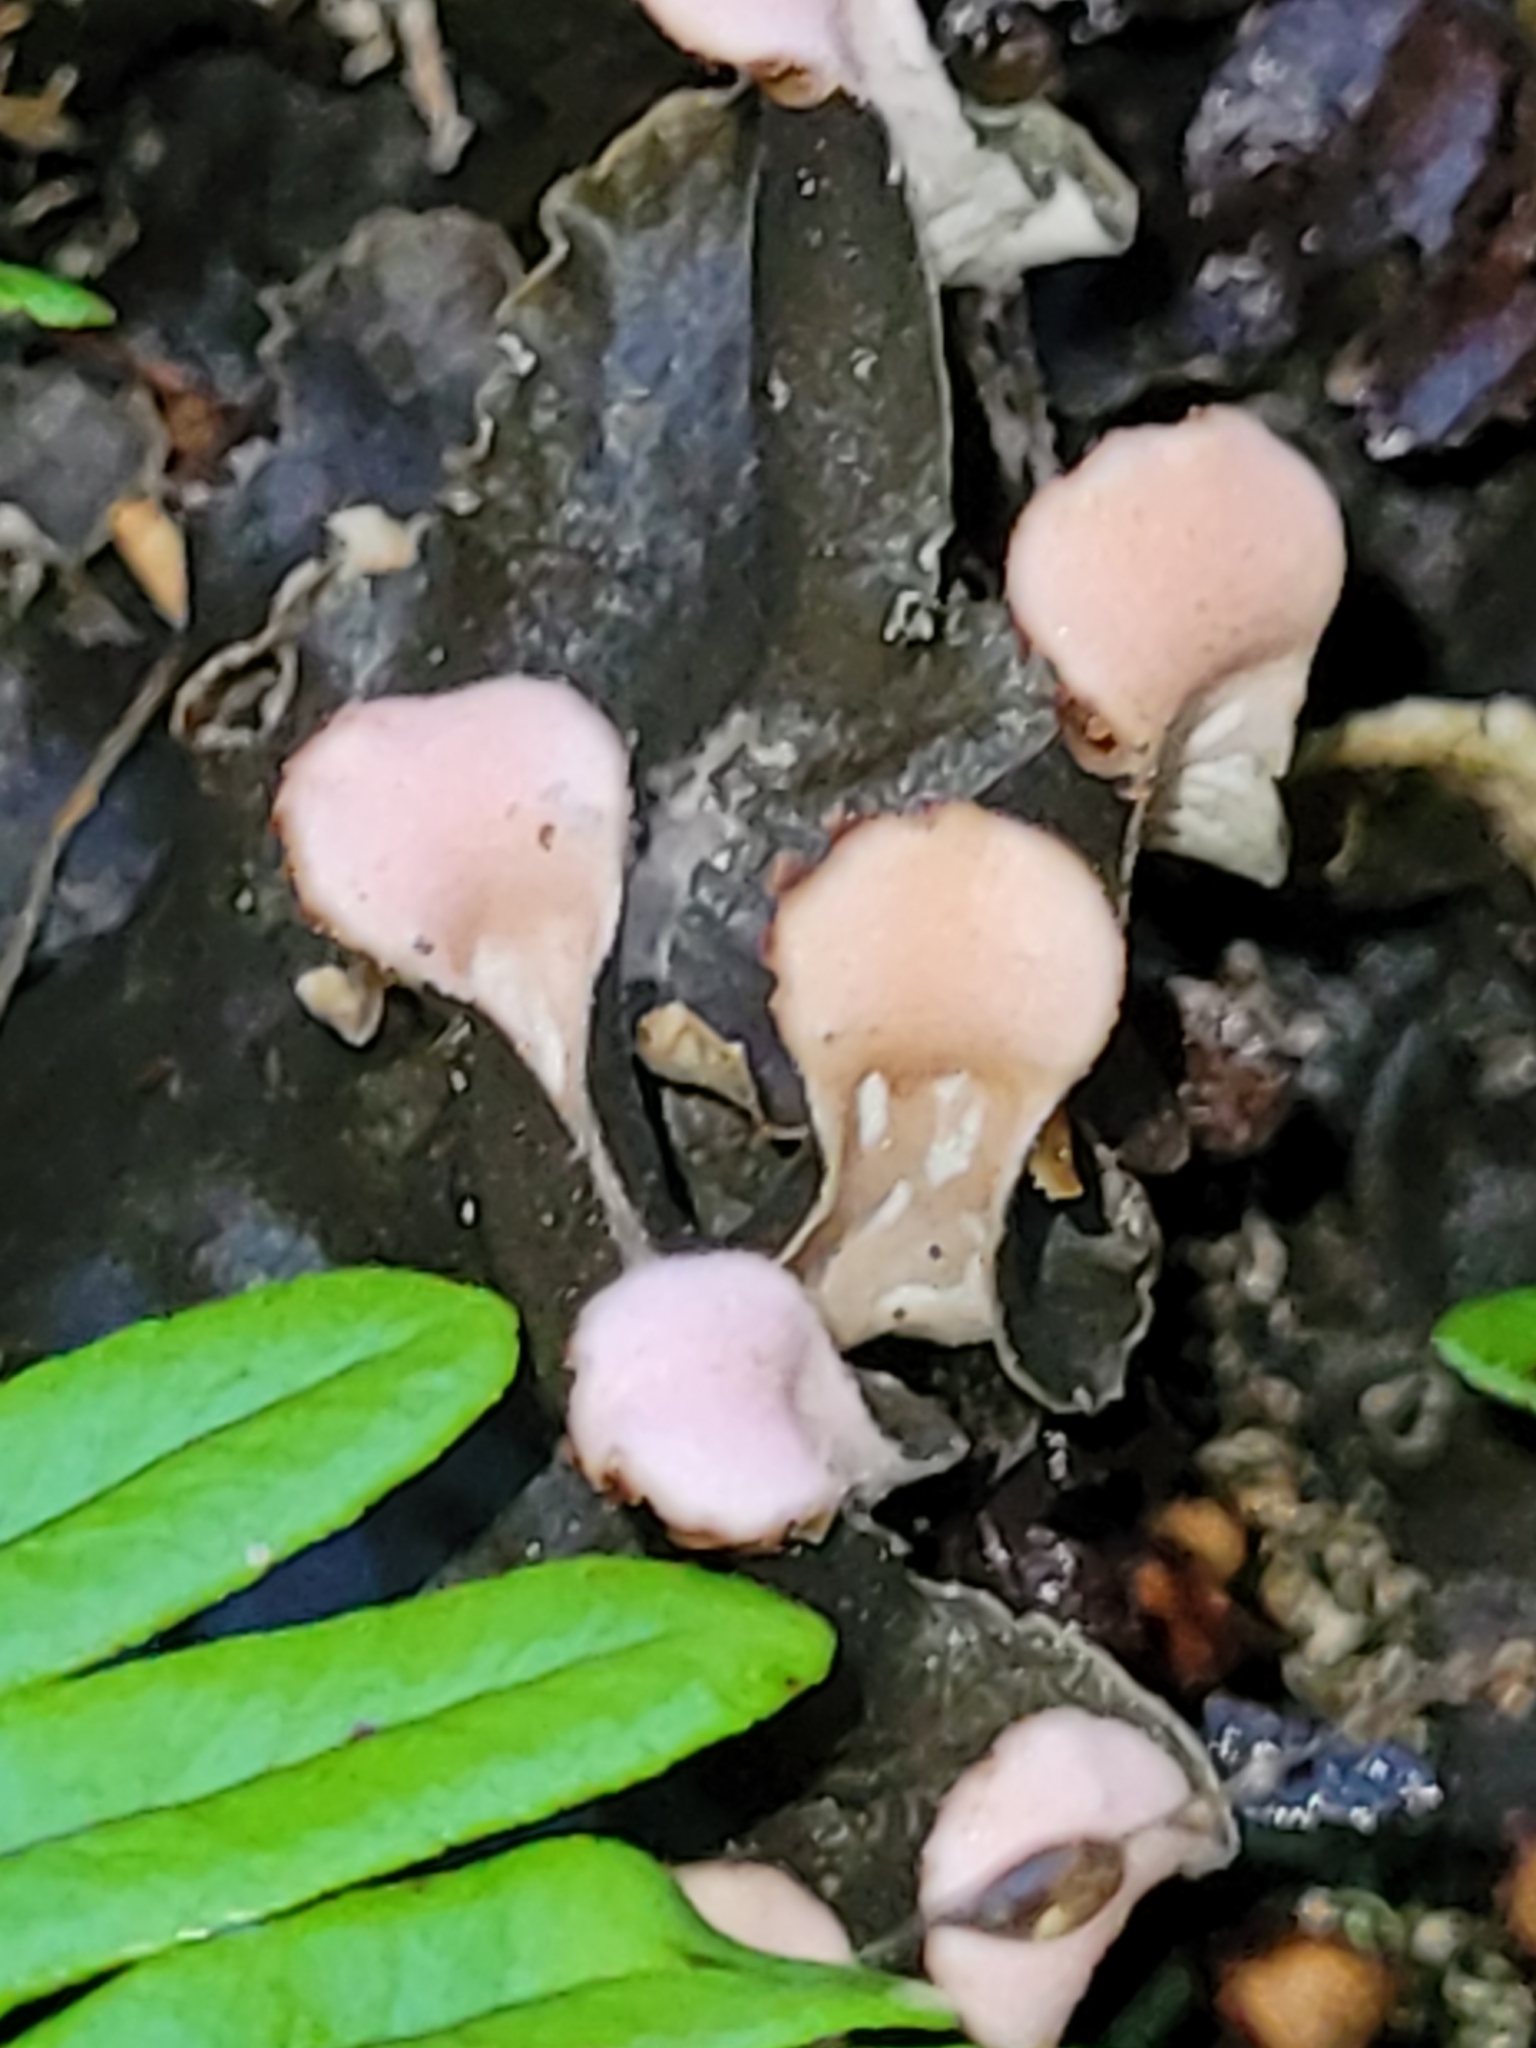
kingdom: Fungi
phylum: Ascomycota
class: Lecanoromycetes
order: Peltigerales
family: Peltigeraceae
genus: Peltigera
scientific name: Peltigera polydactylon
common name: Many-fruited pelt lichen
